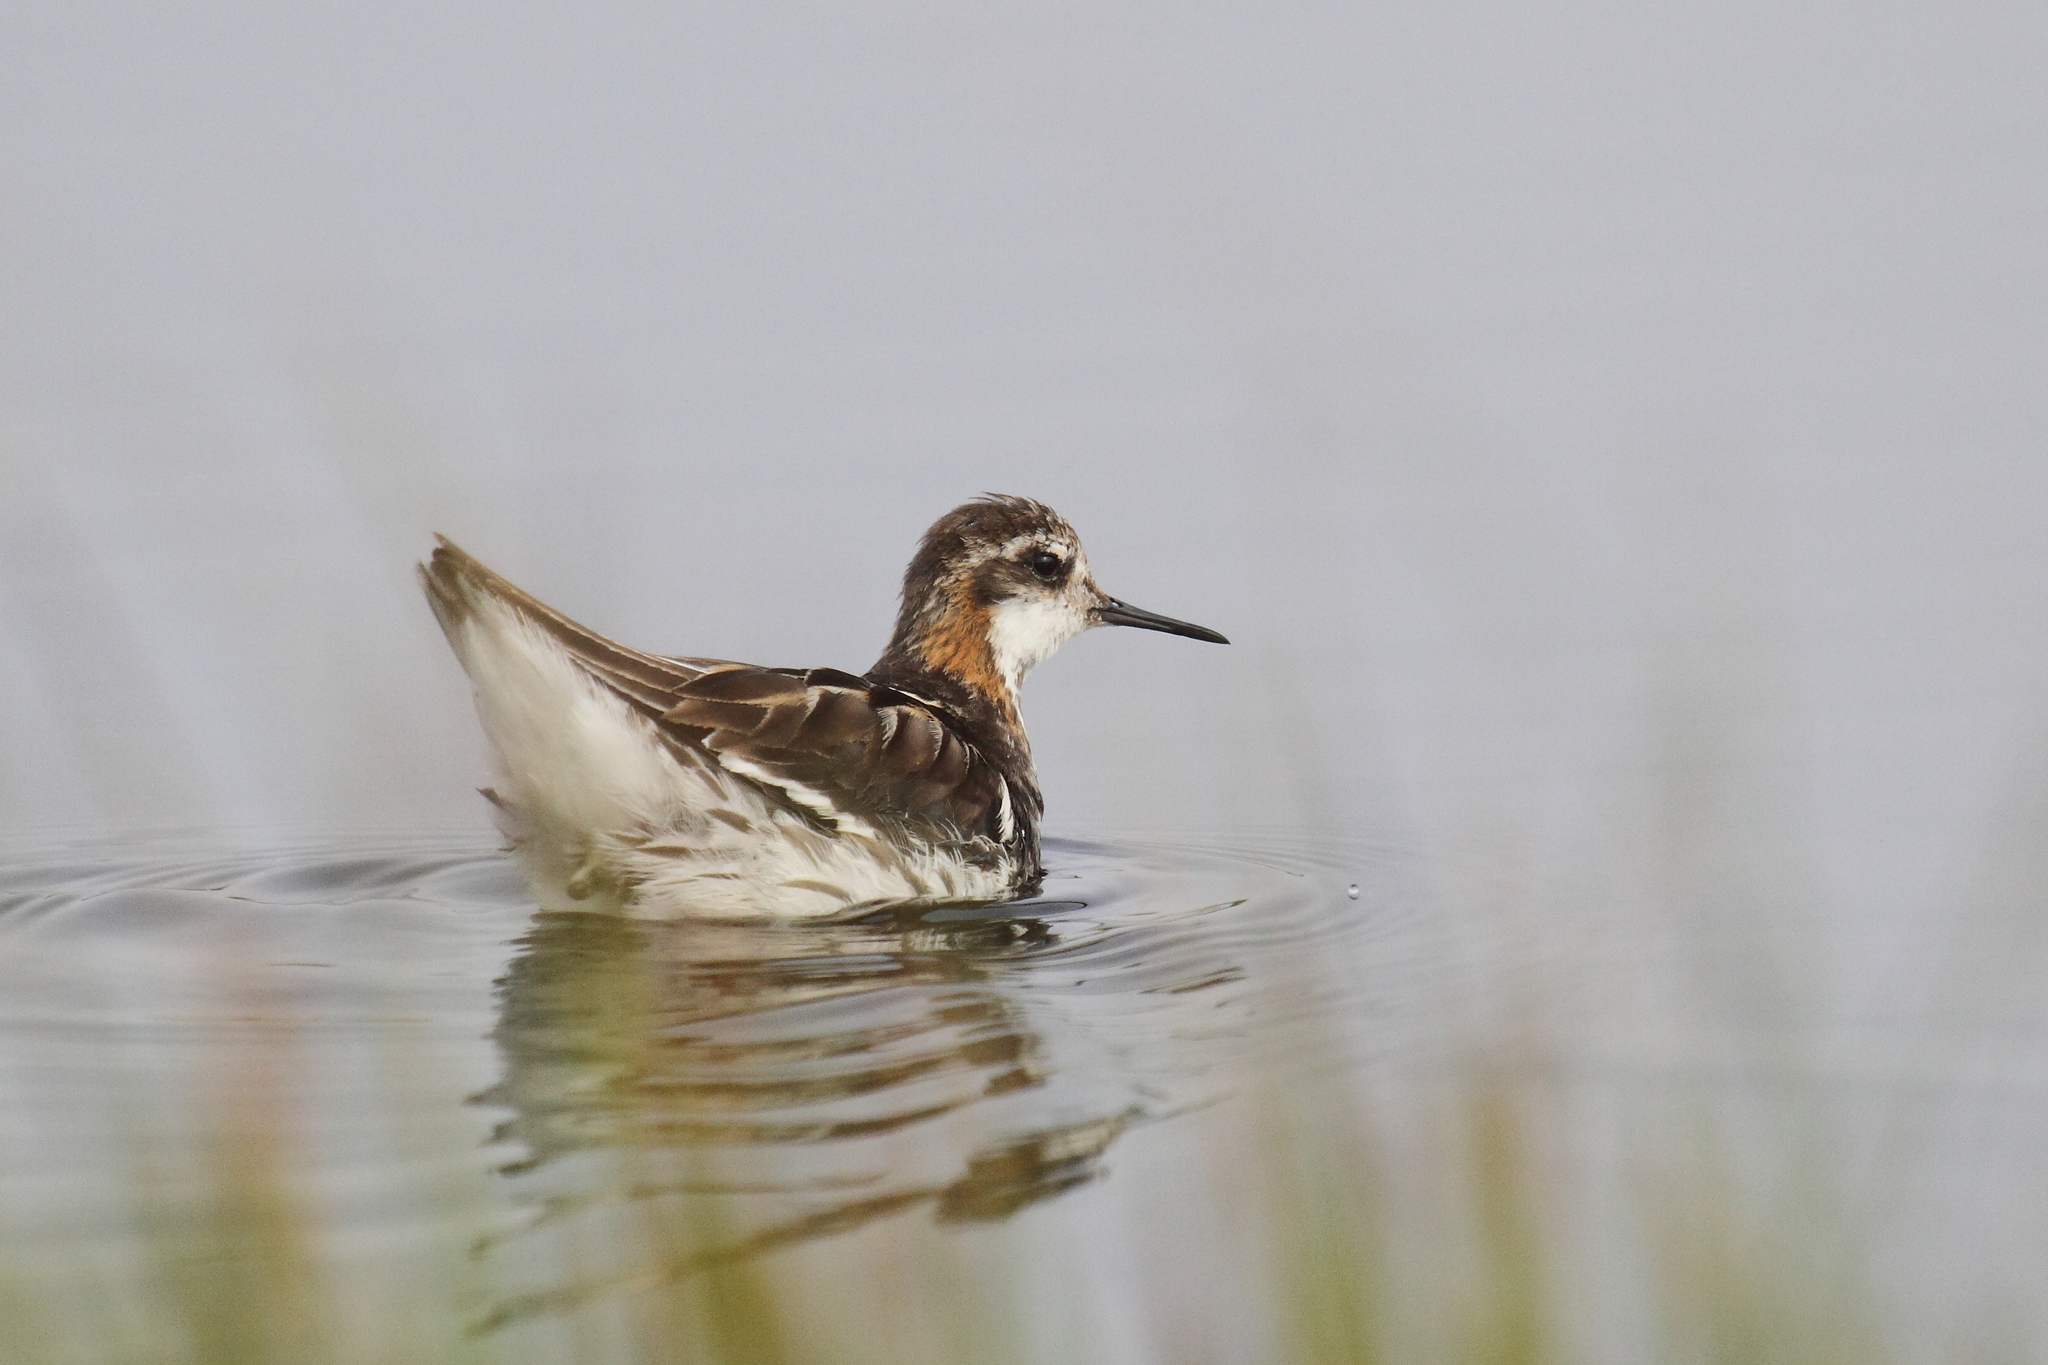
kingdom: Animalia
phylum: Chordata
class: Aves
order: Charadriiformes
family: Scolopacidae
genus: Phalaropus
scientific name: Phalaropus lobatus
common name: Red-necked phalarope
